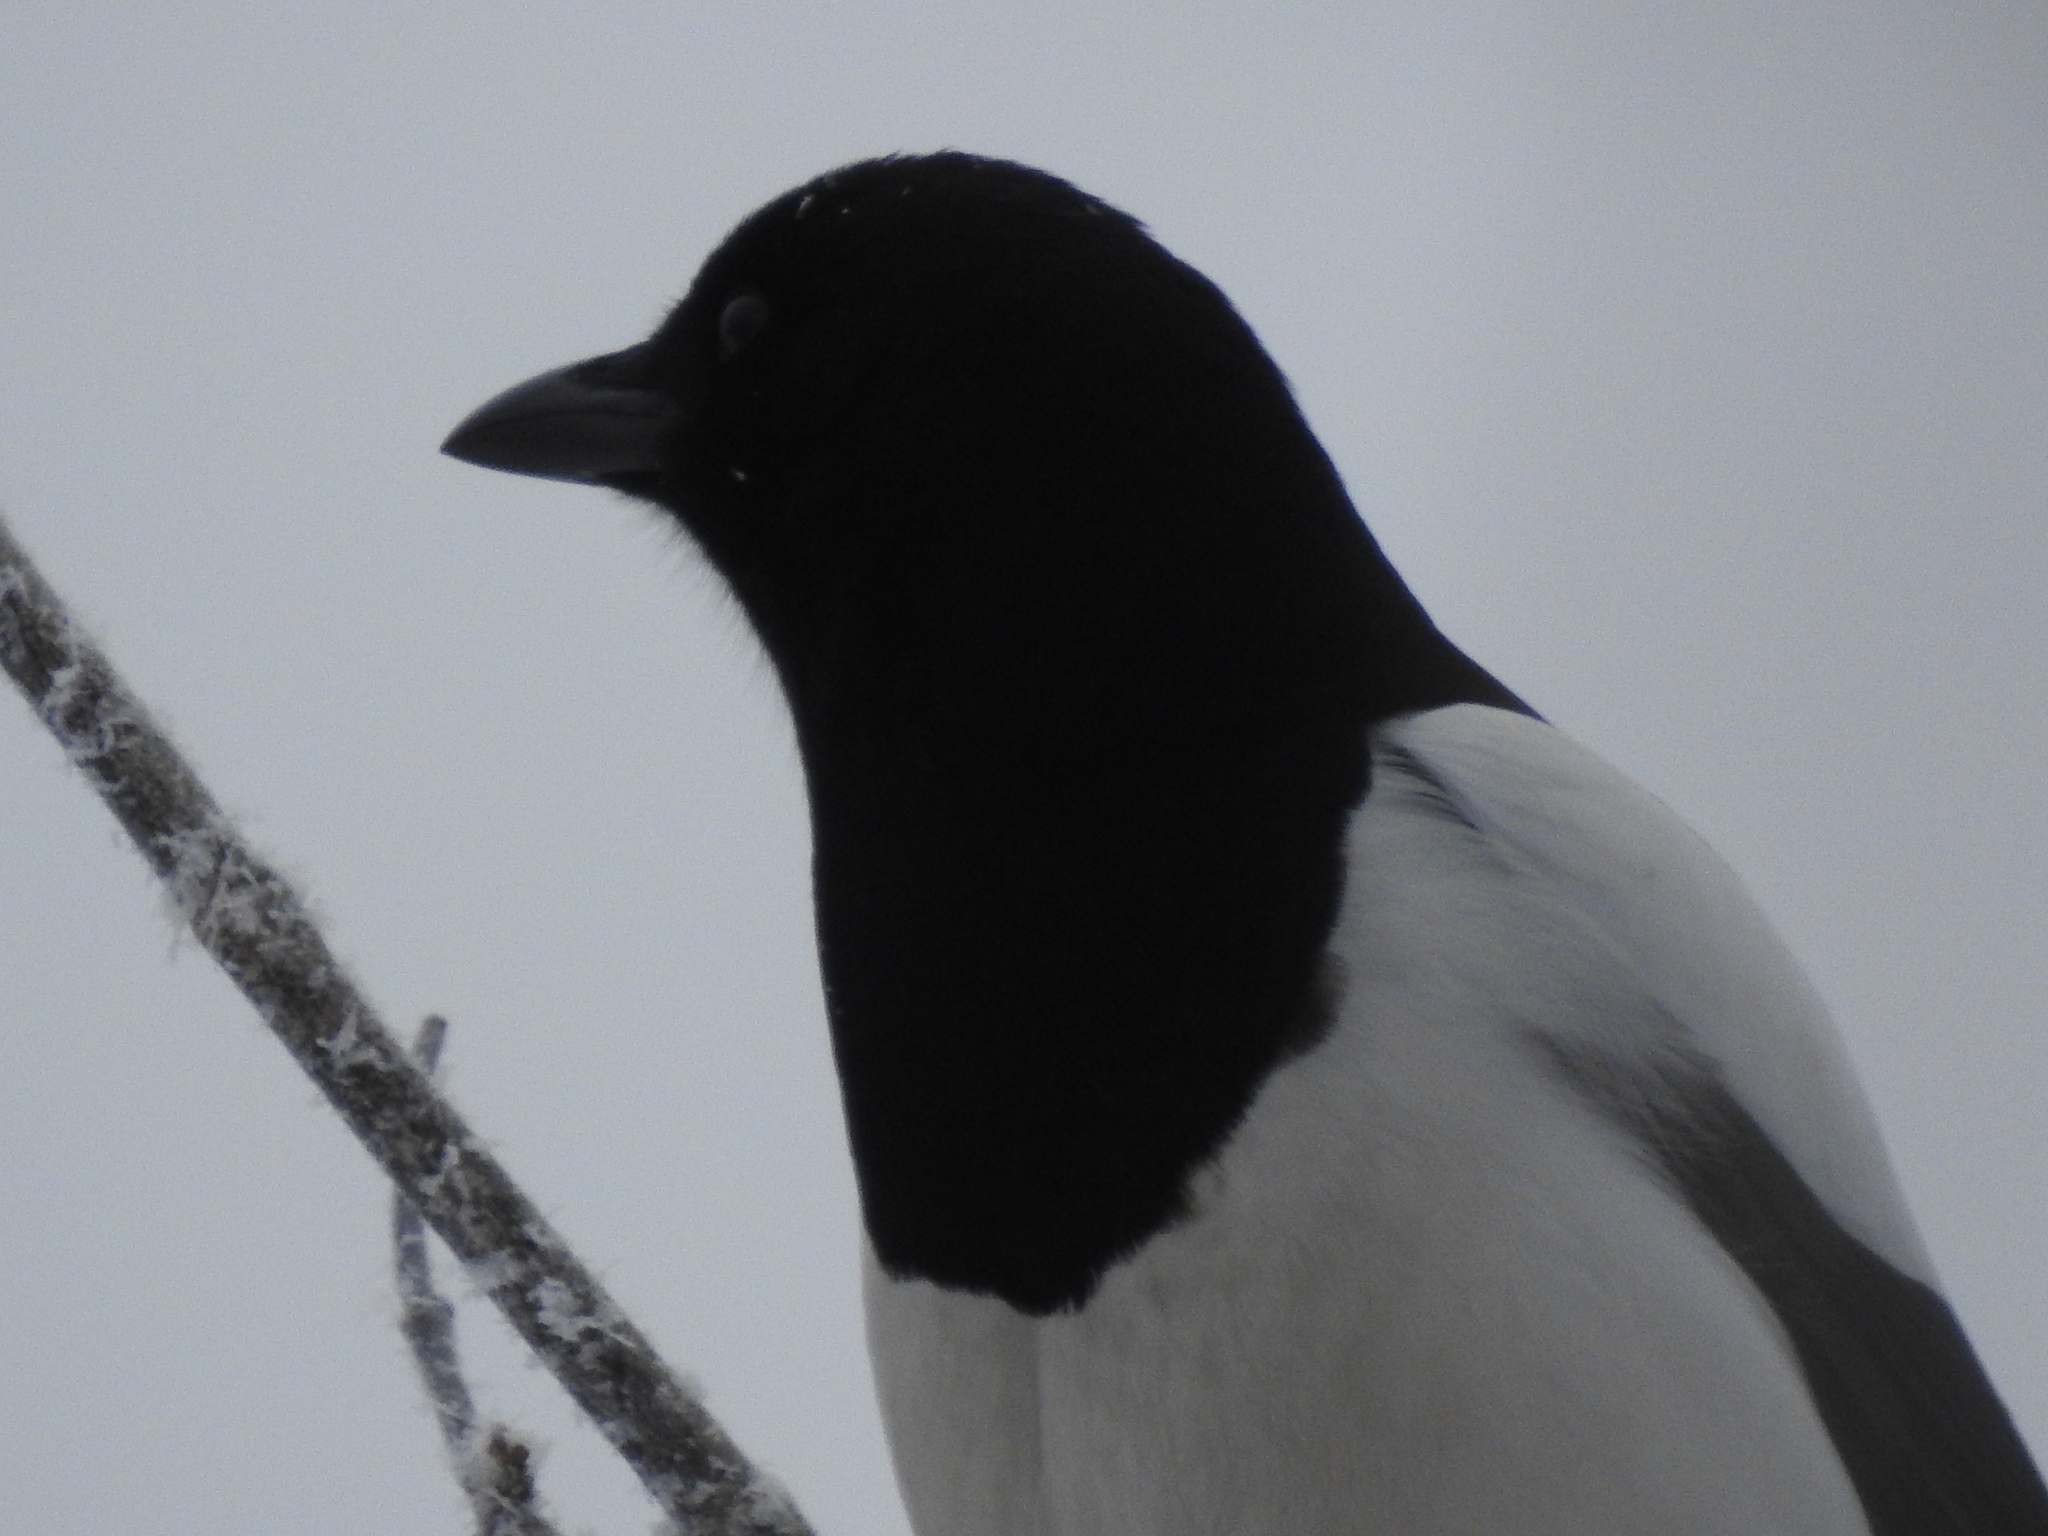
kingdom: Animalia
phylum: Chordata
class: Aves
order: Passeriformes
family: Corvidae
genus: Pica
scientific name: Pica pica
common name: Eurasian magpie
